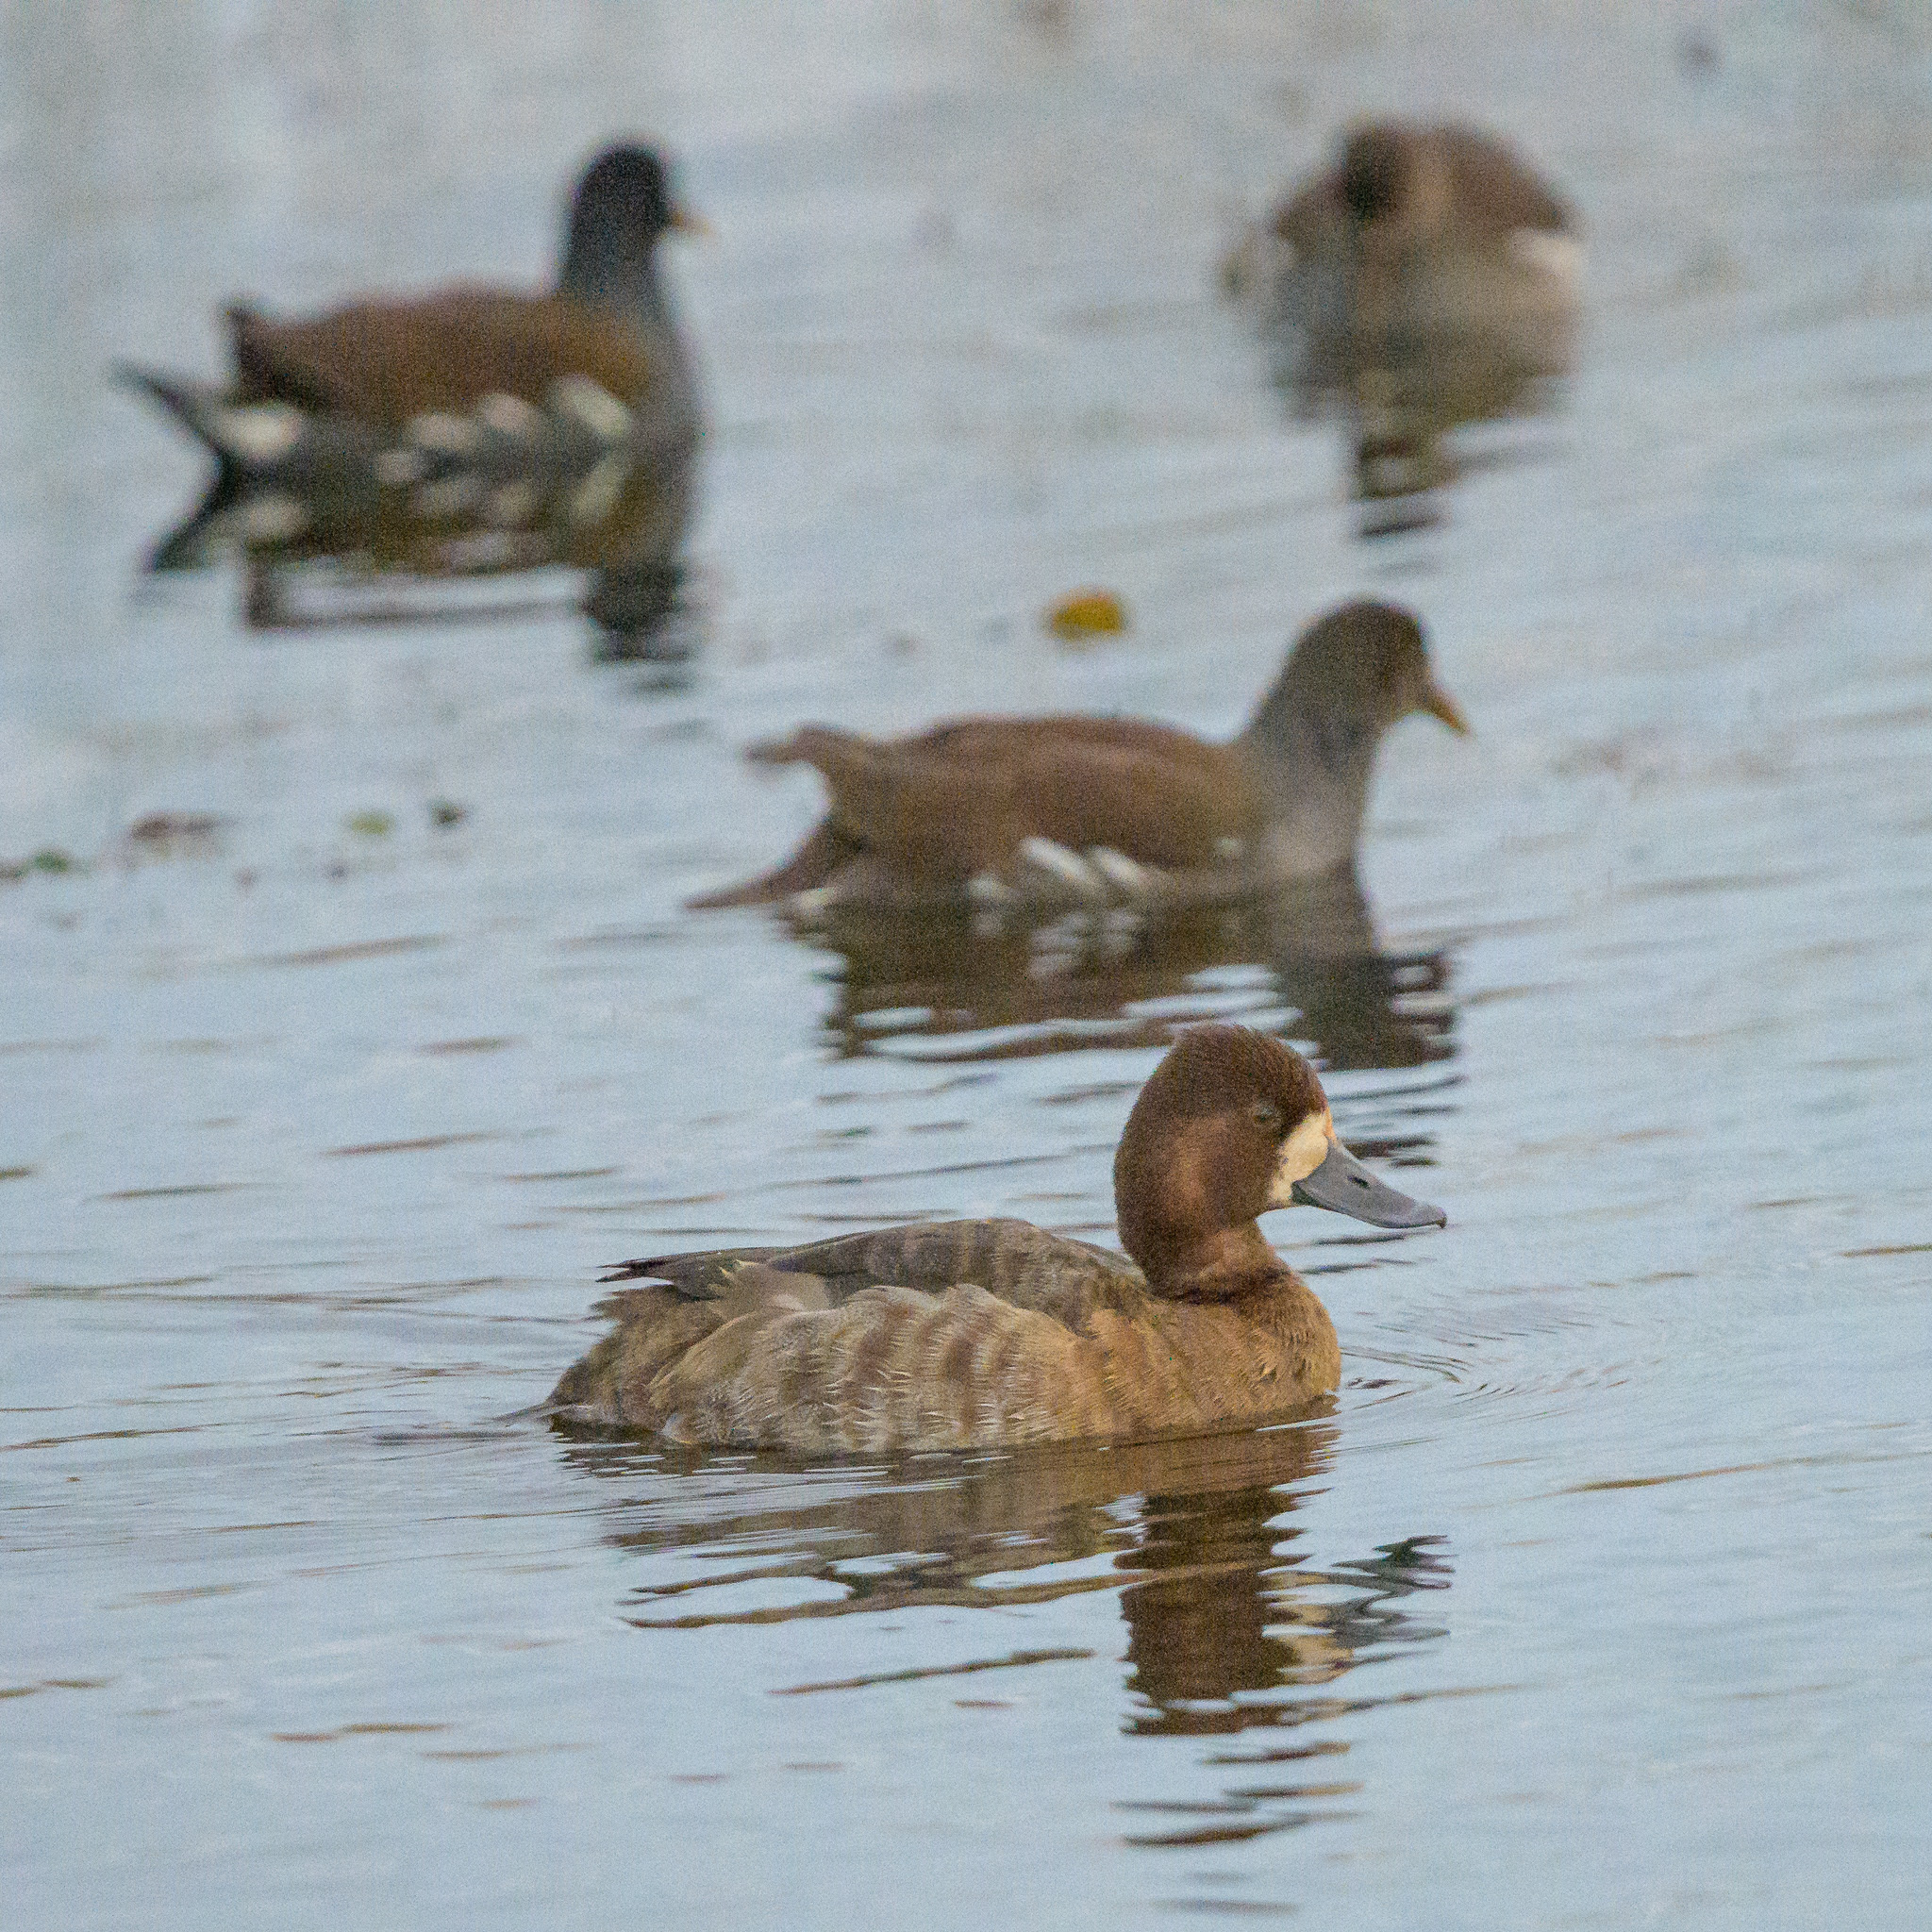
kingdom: Animalia
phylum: Chordata
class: Aves
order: Anseriformes
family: Anatidae
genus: Aythya
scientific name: Aythya marila
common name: Greater scaup
